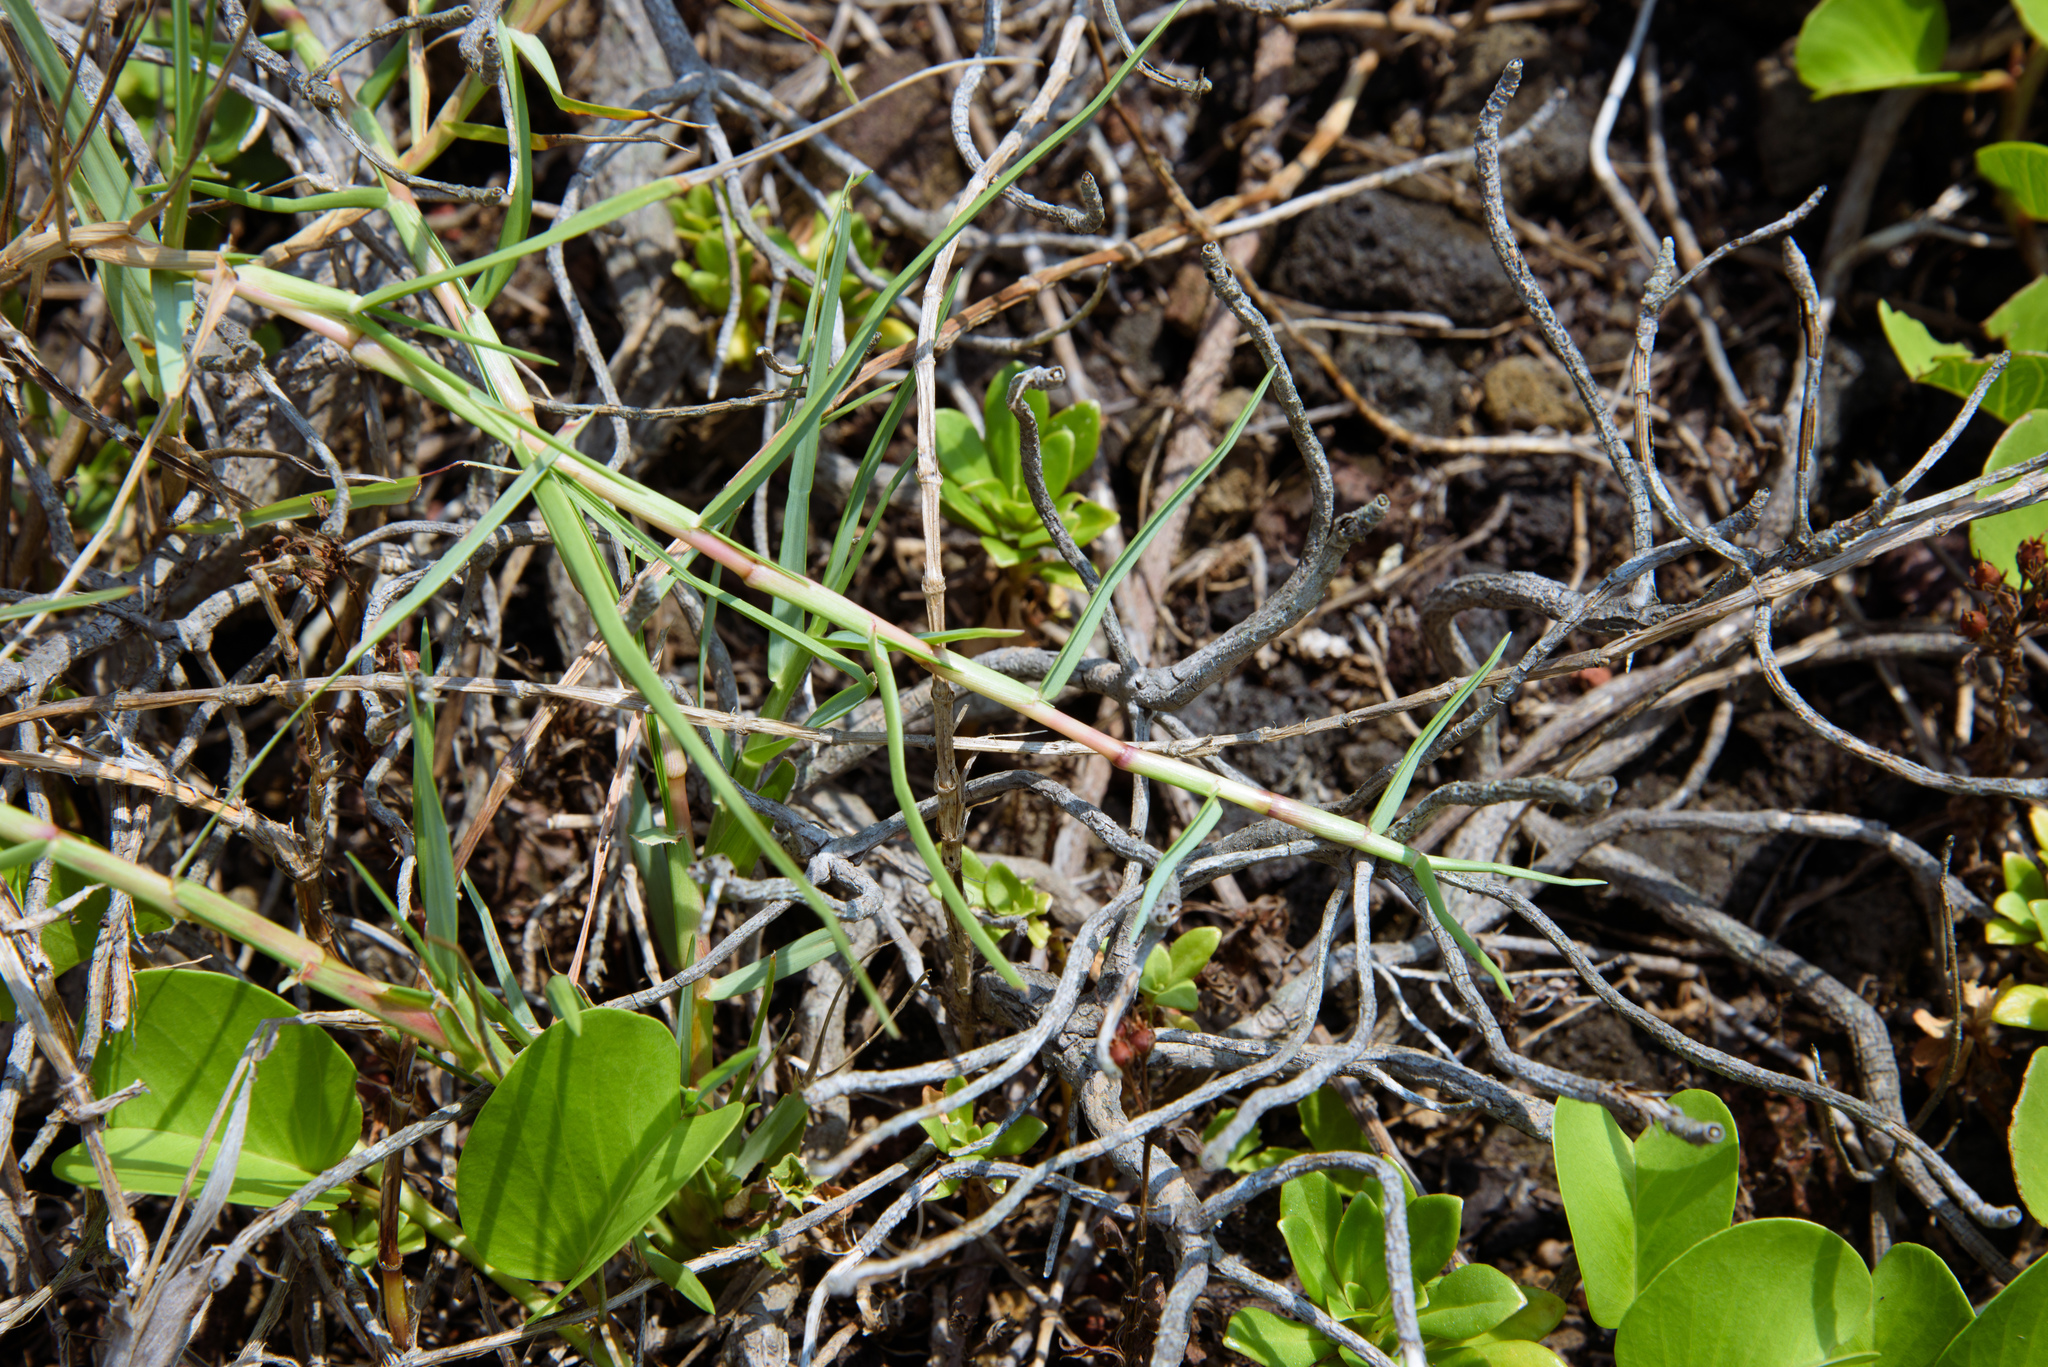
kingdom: Plantae
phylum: Tracheophyta
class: Liliopsida
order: Poales
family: Poaceae
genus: Paspalum
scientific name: Paspalum vaginatum
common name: Seashore paspalum
